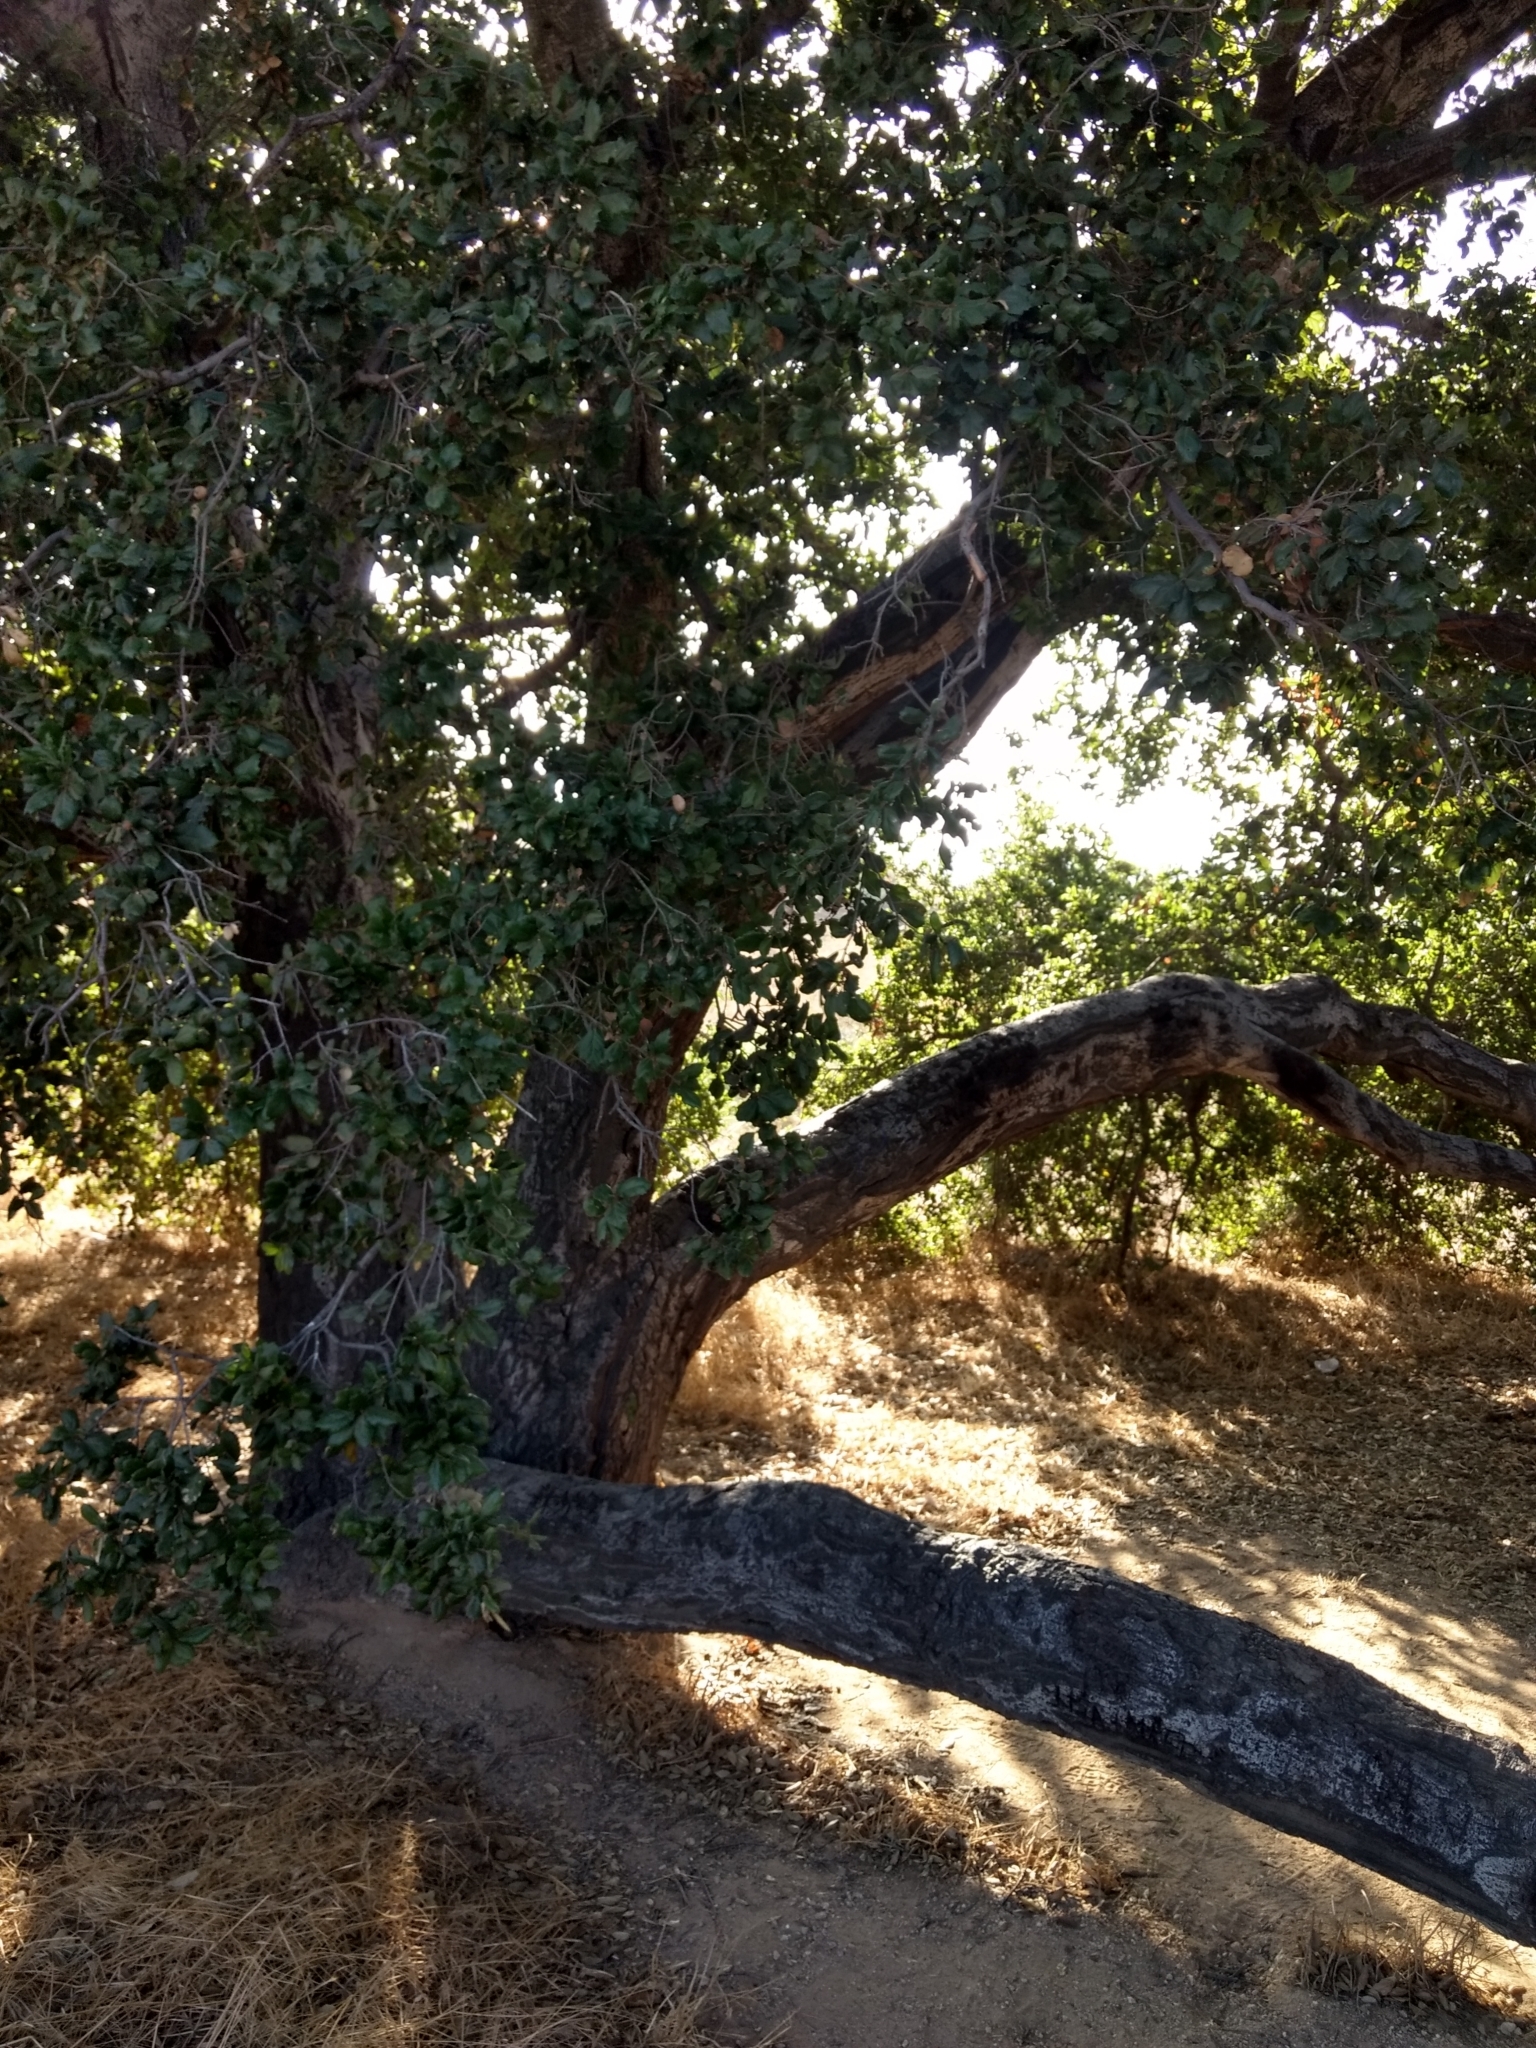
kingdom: Plantae
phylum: Tracheophyta
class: Magnoliopsida
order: Fagales
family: Fagaceae
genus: Quercus
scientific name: Quercus agrifolia
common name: California live oak
